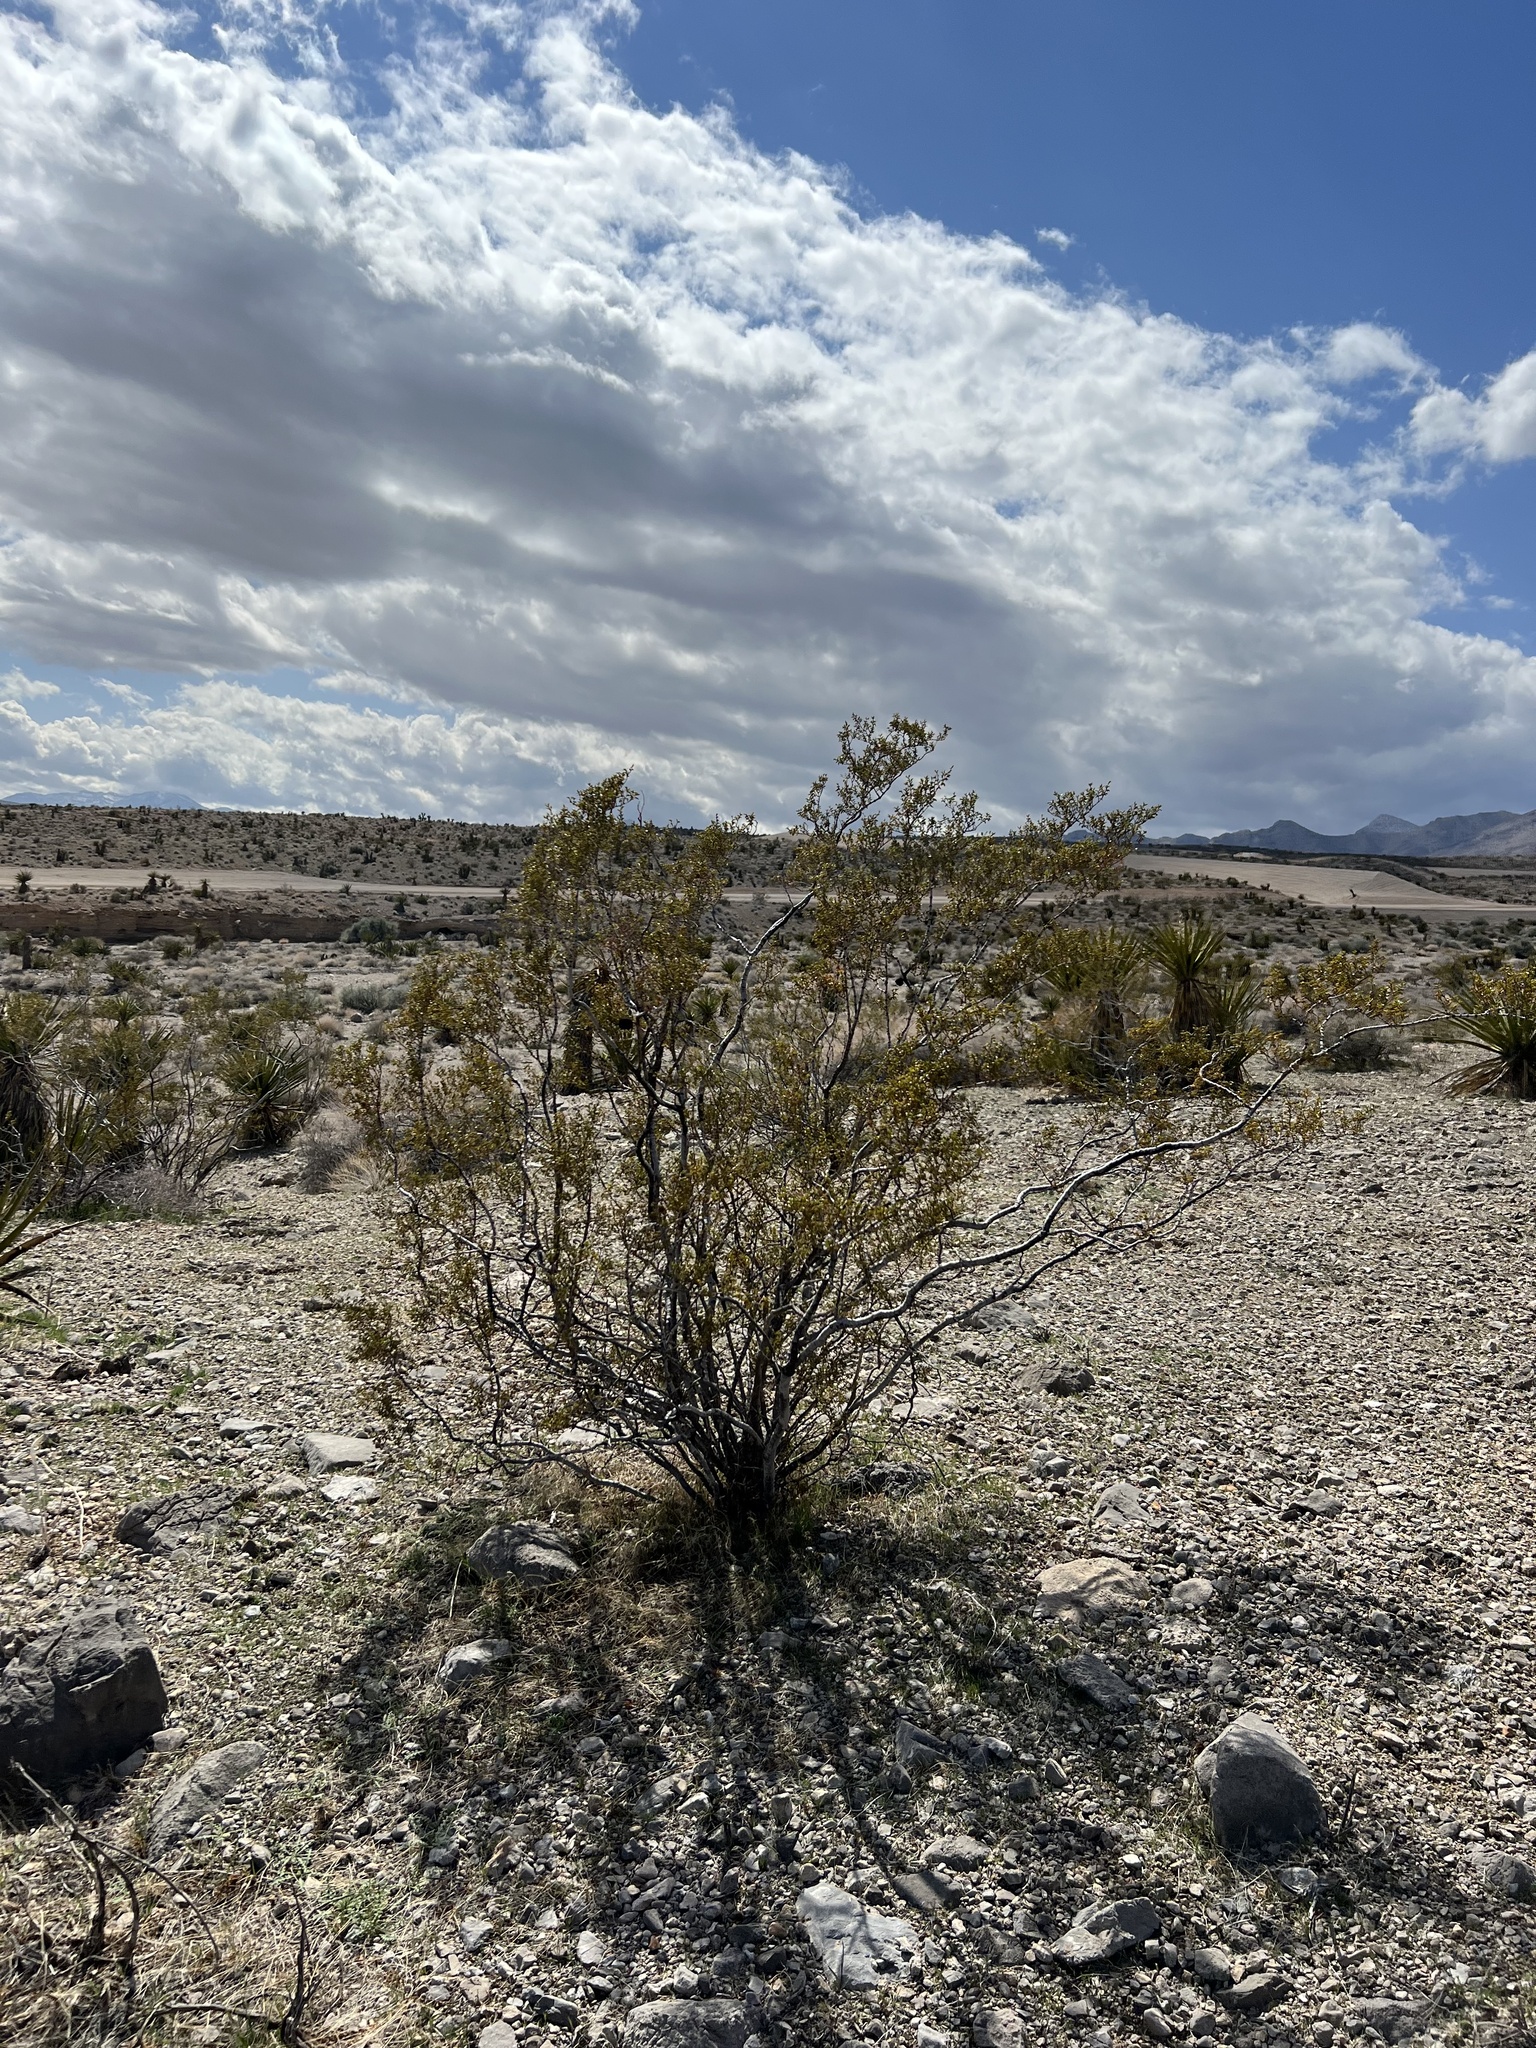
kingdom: Plantae
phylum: Tracheophyta
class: Magnoliopsida
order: Zygophyllales
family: Zygophyllaceae
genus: Larrea
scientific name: Larrea tridentata
